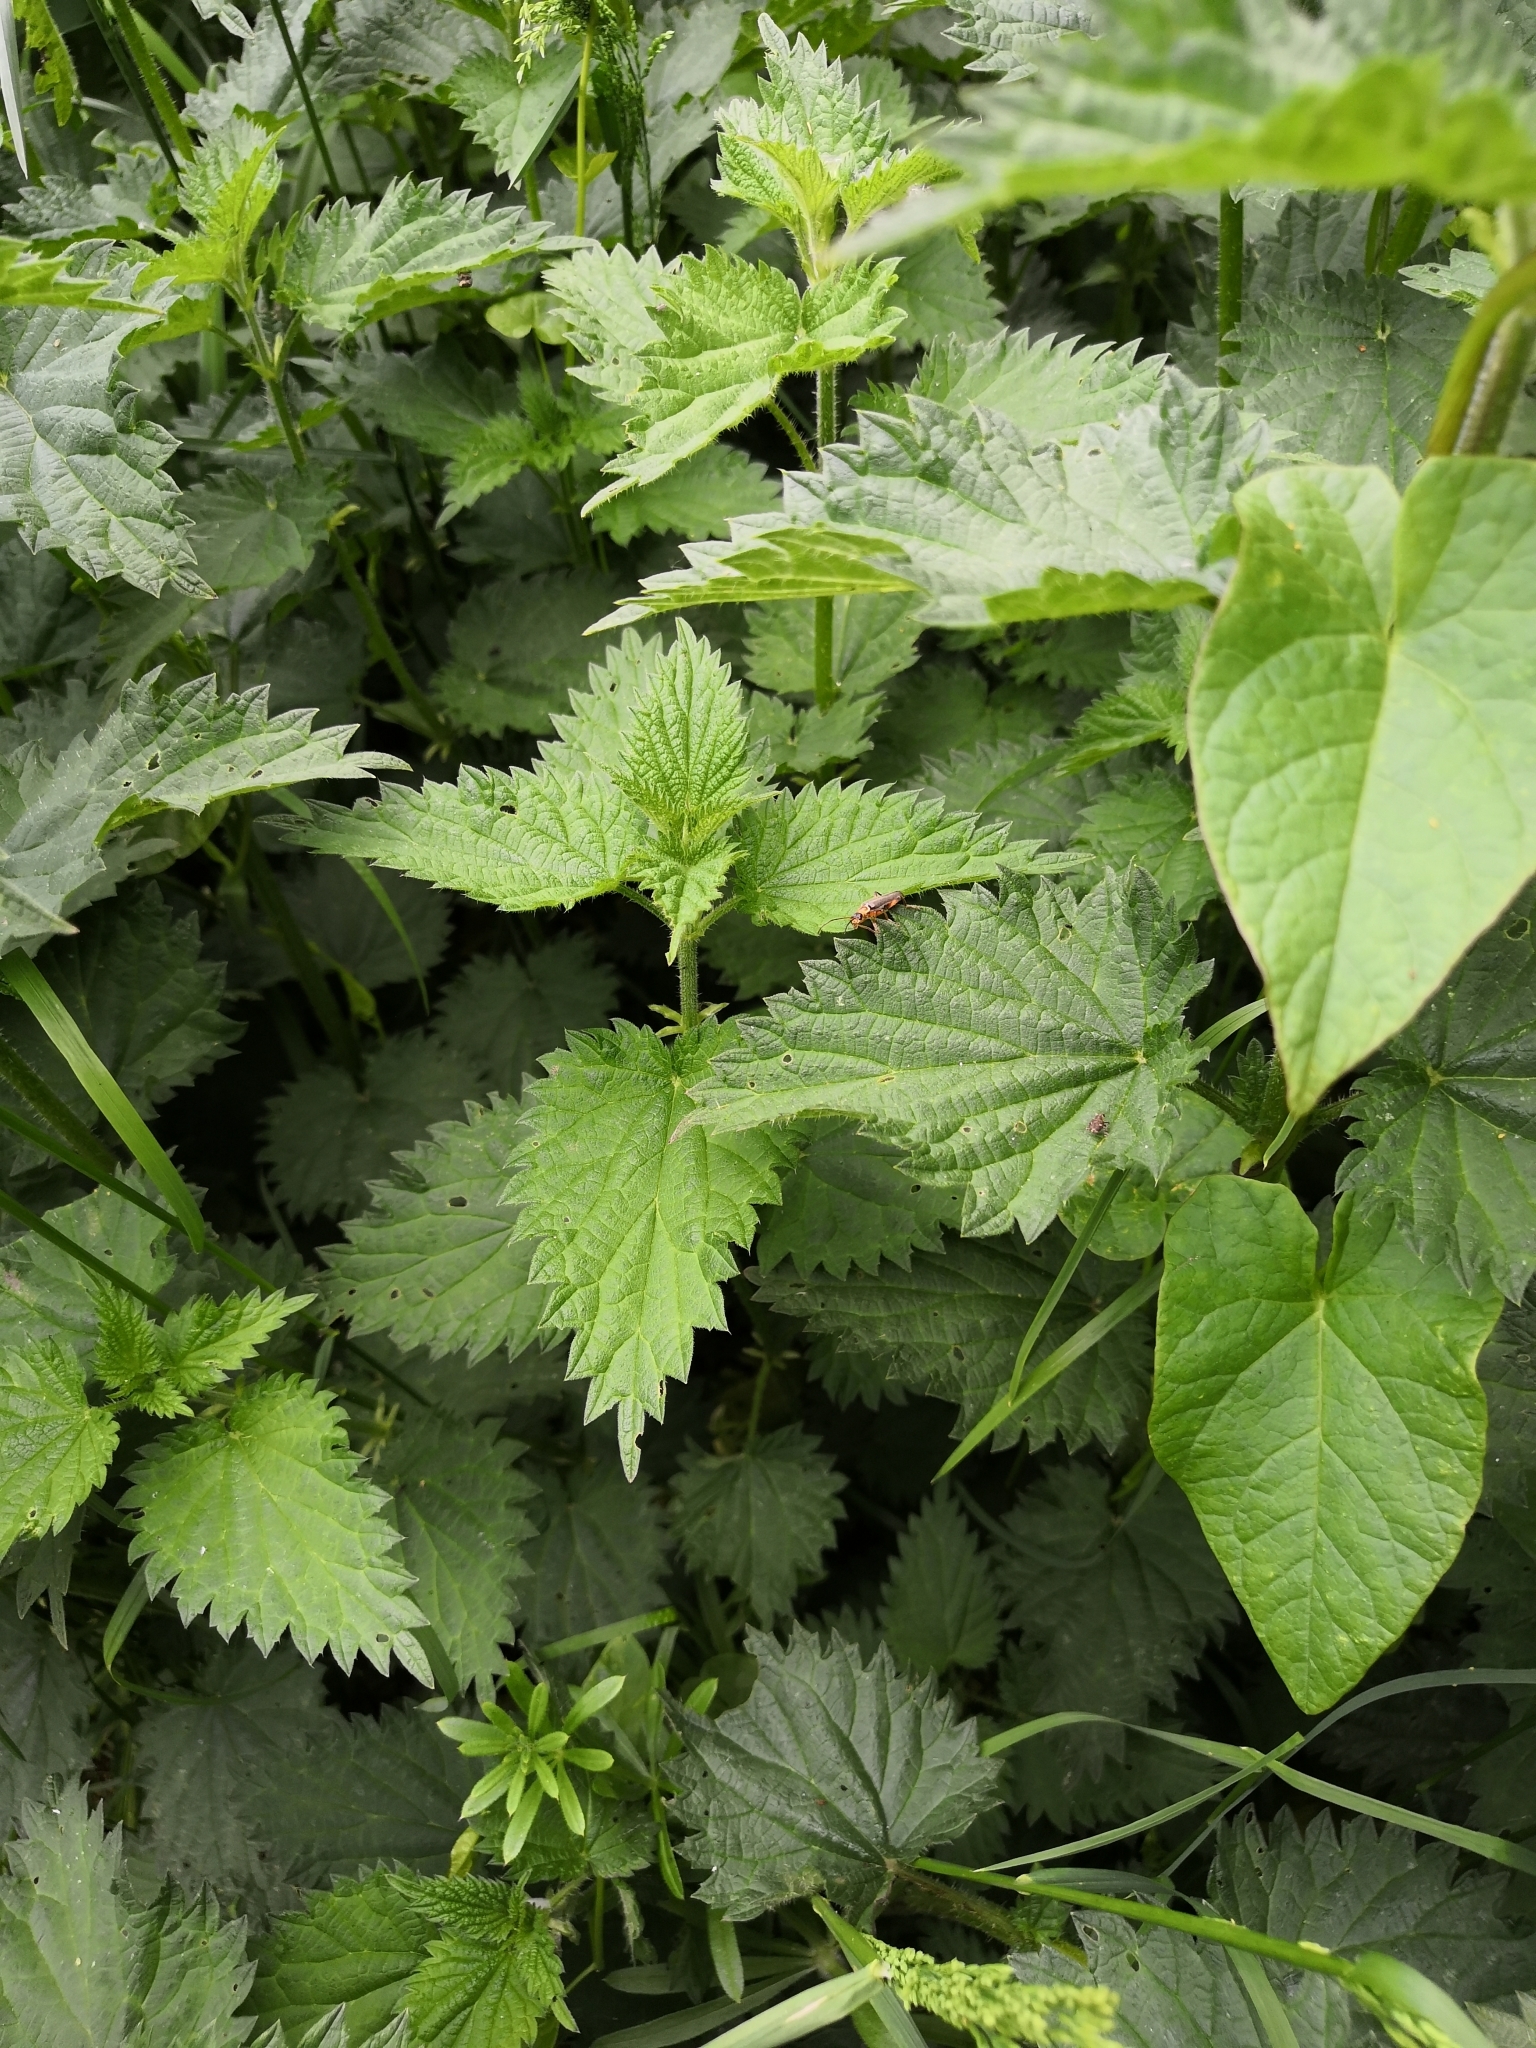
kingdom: Animalia
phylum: Arthropoda
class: Insecta
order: Coleoptera
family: Cantharidae
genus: Cantharis
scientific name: Cantharis nigricans
